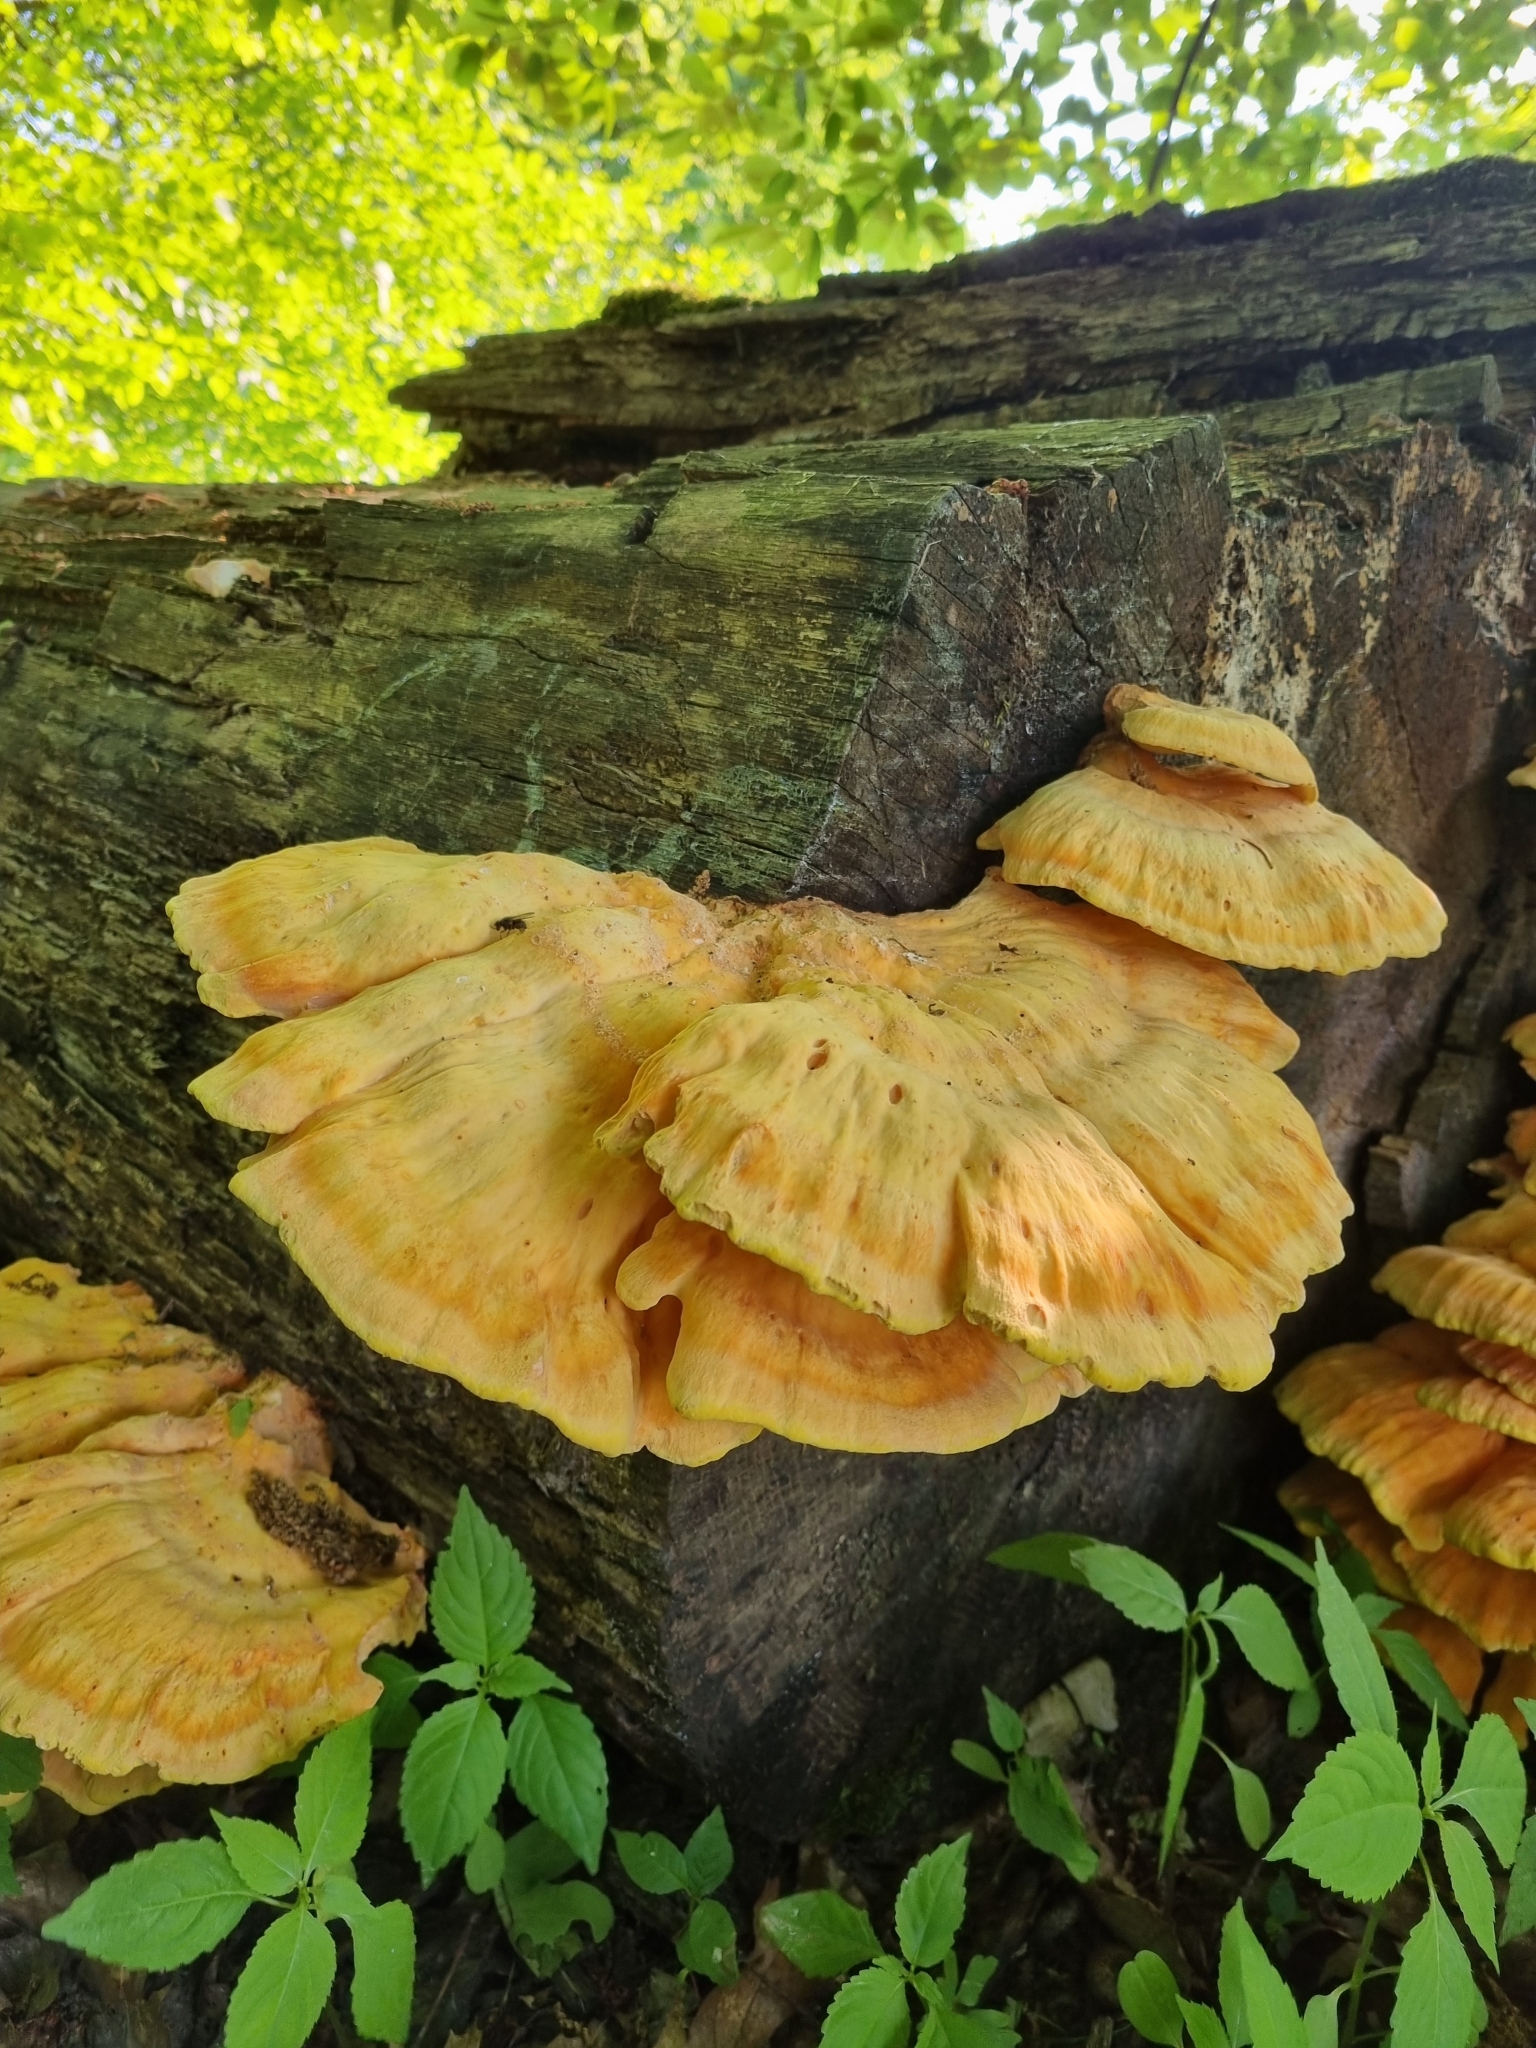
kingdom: Fungi
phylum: Basidiomycota
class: Agaricomycetes
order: Polyporales
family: Laetiporaceae
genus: Laetiporus
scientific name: Laetiporus sulphureus
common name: Chicken of the woods
